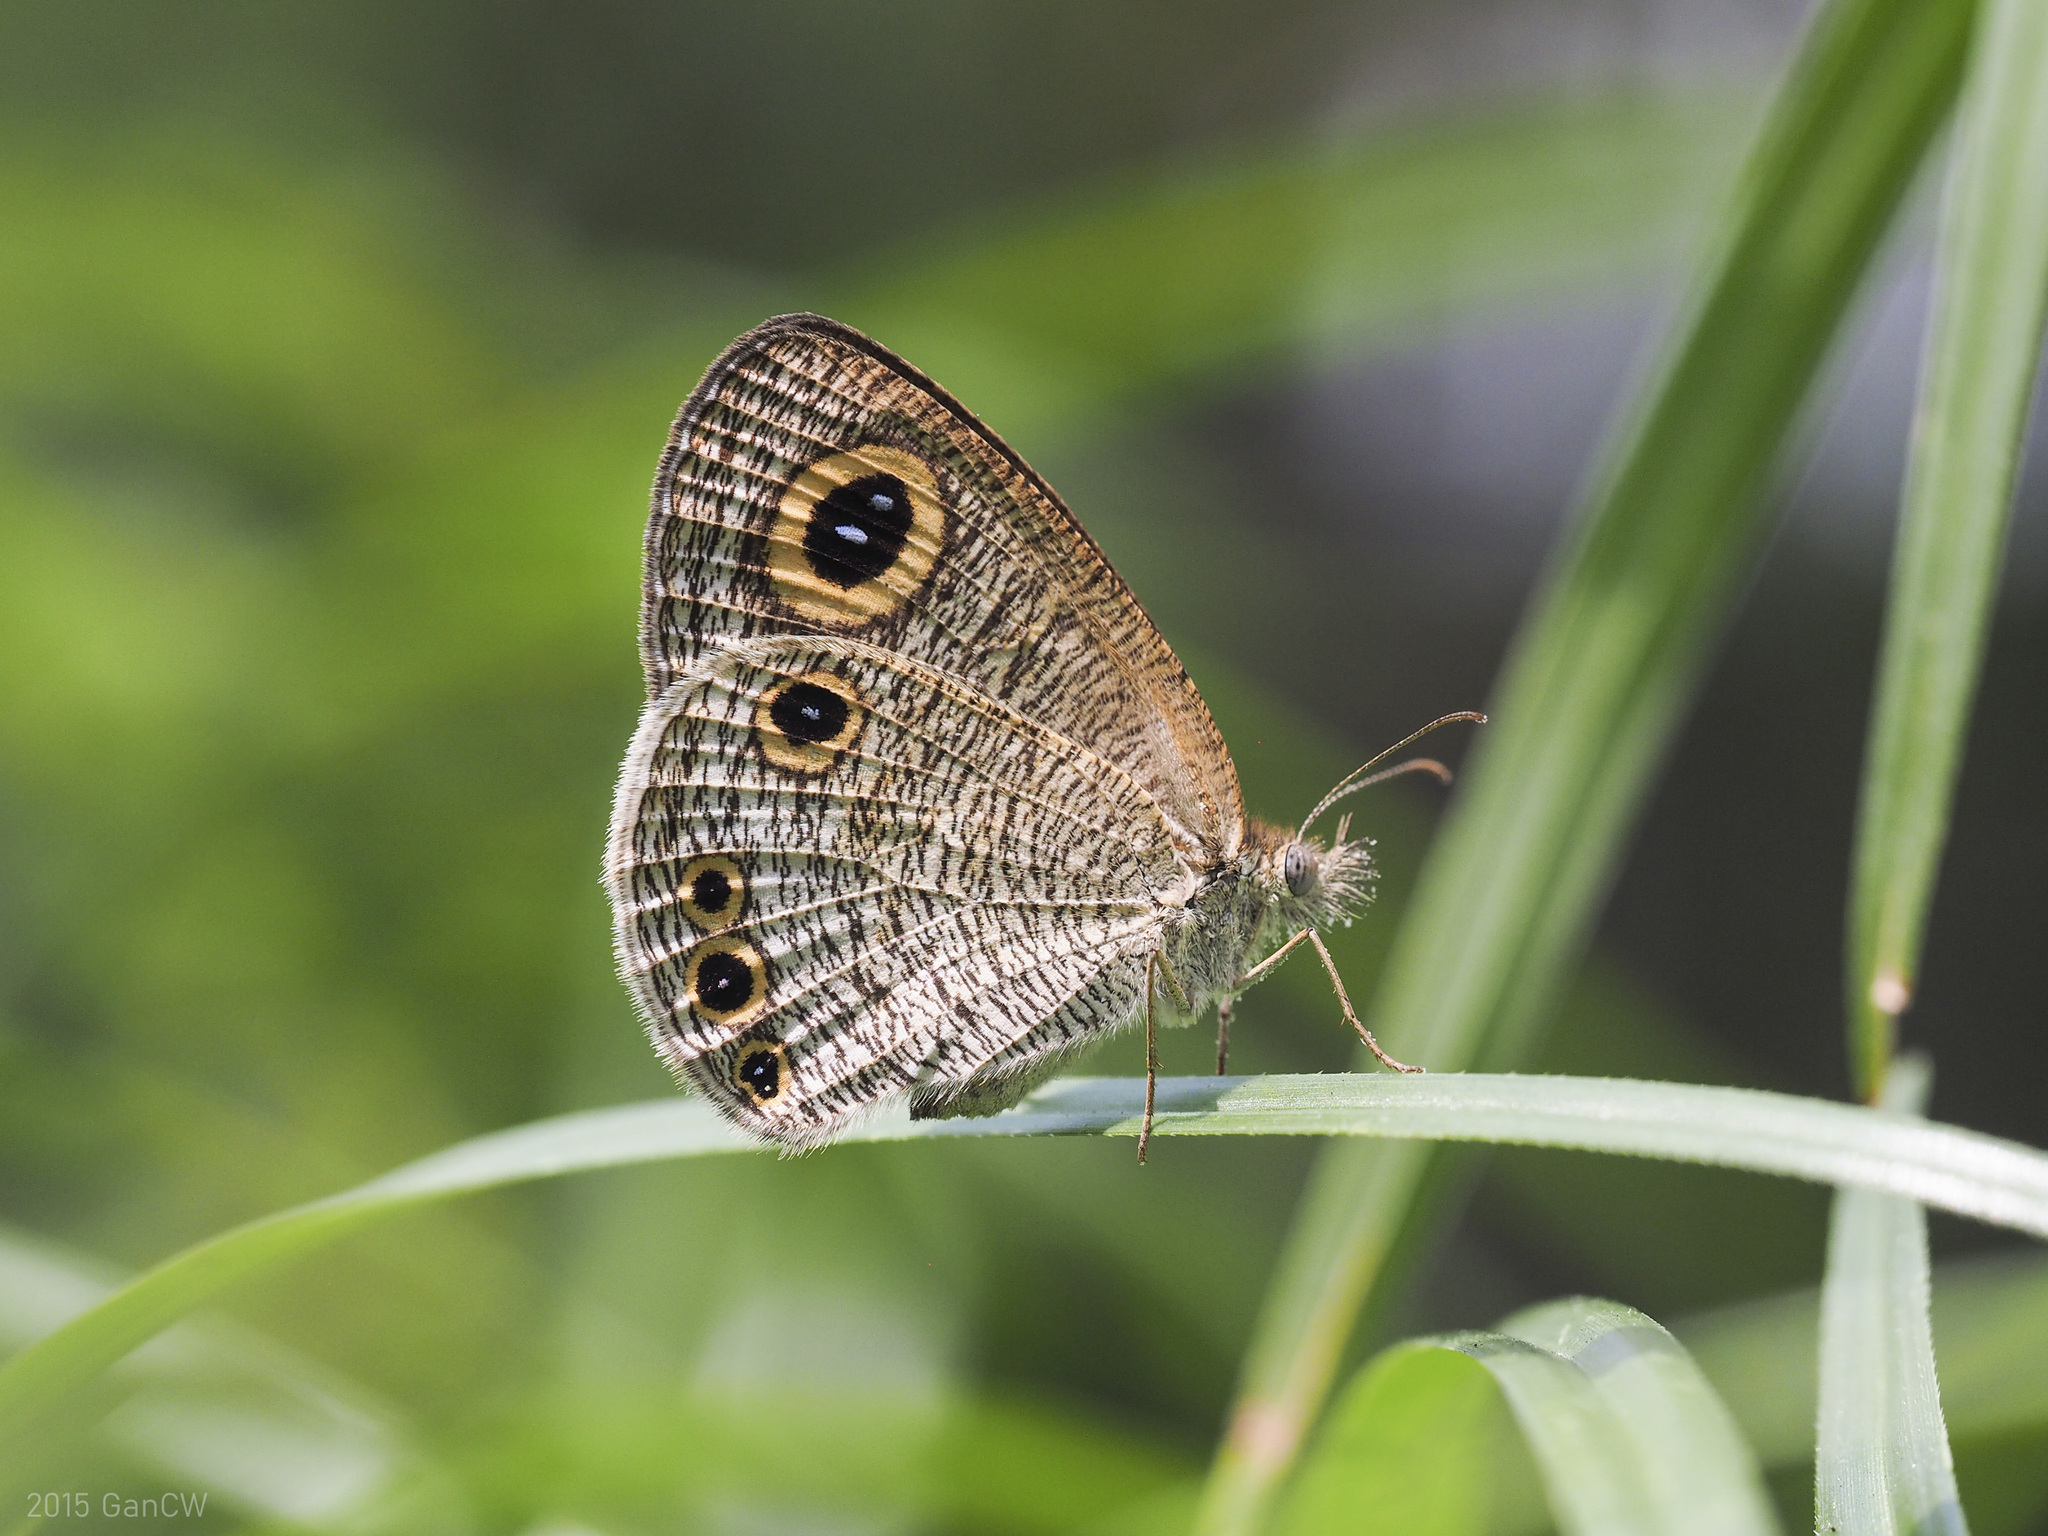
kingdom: Animalia
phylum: Arthropoda
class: Insecta
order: Lepidoptera
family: Nymphalidae
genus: Ypthima
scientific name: Ypthima huebneri
